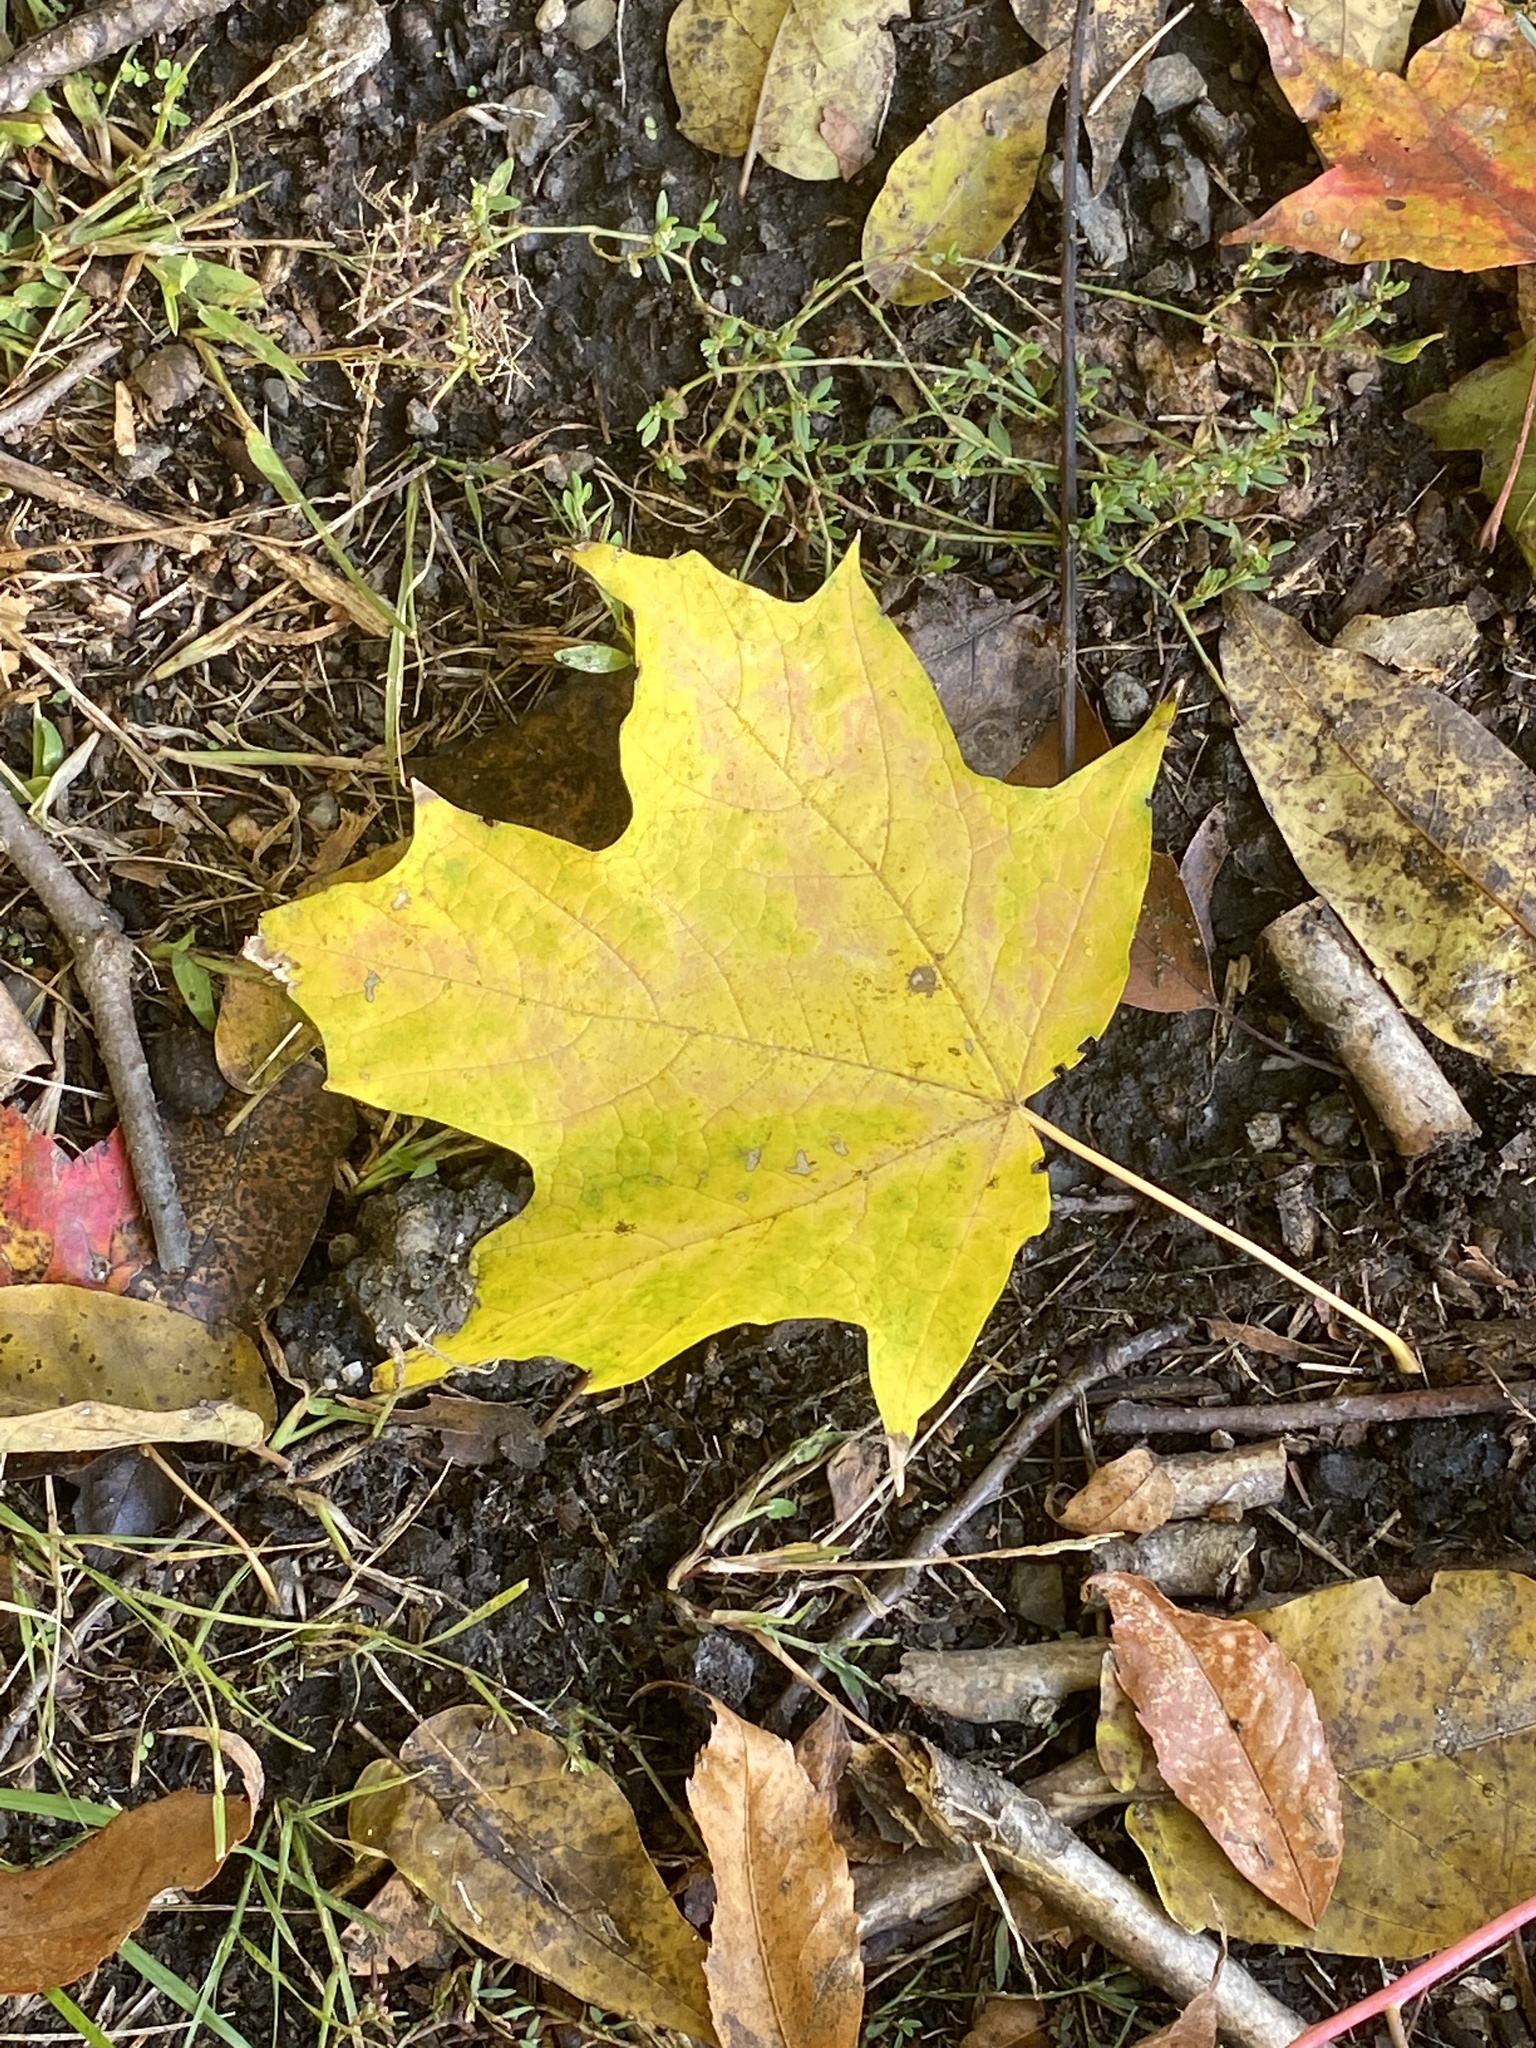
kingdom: Plantae
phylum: Tracheophyta
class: Magnoliopsida
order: Sapindales
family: Sapindaceae
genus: Acer
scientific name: Acer saccharum
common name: Sugar maple
